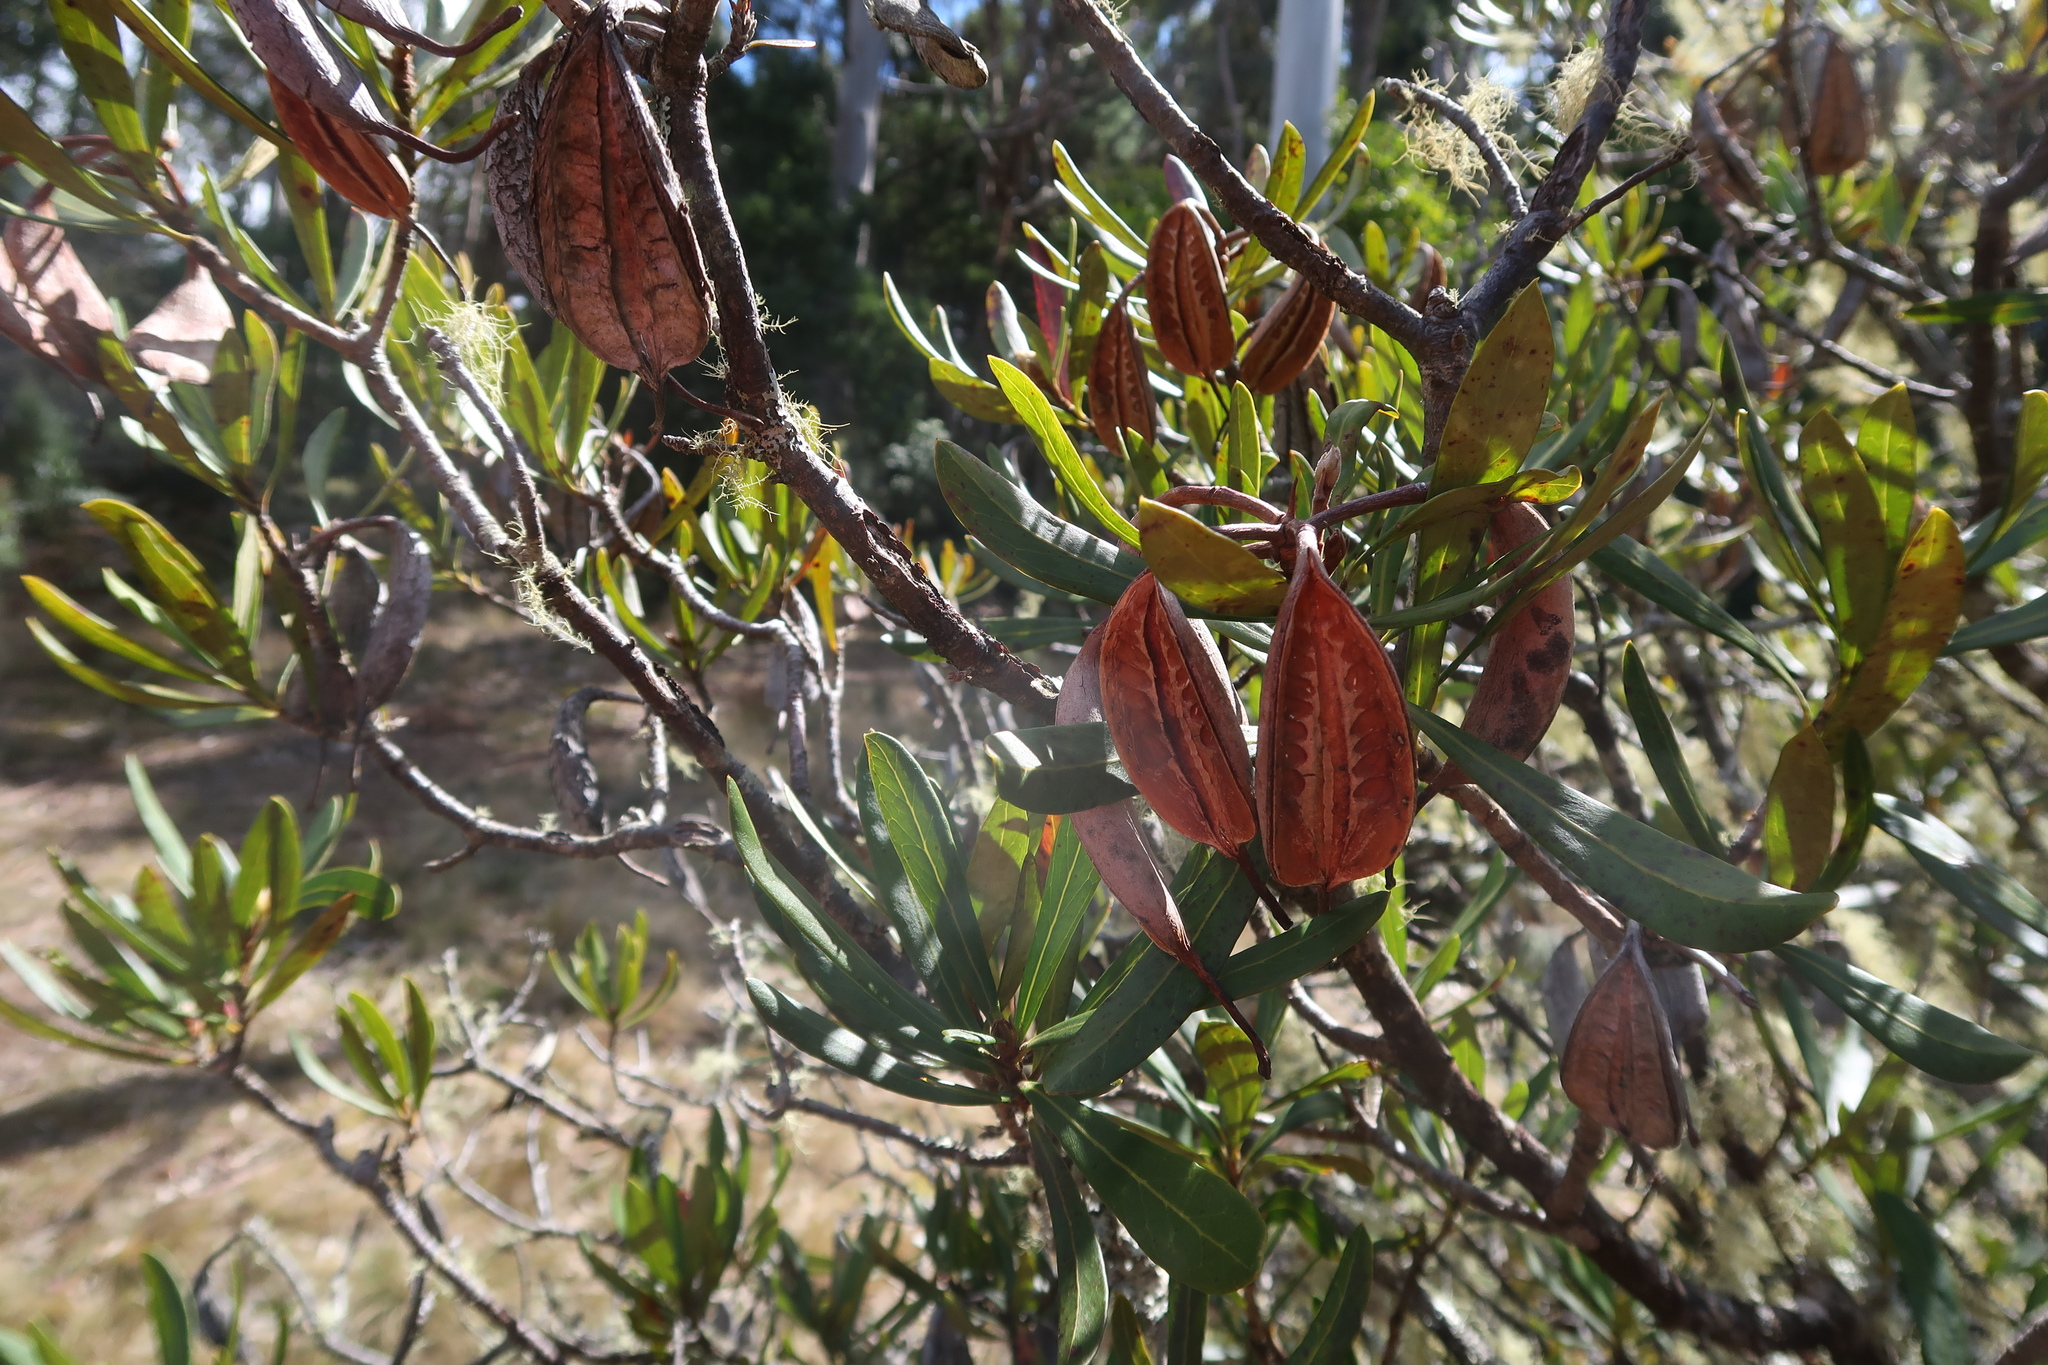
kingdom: Plantae
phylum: Tracheophyta
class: Magnoliopsida
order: Proteales
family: Proteaceae
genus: Telopea
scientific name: Telopea truncata
